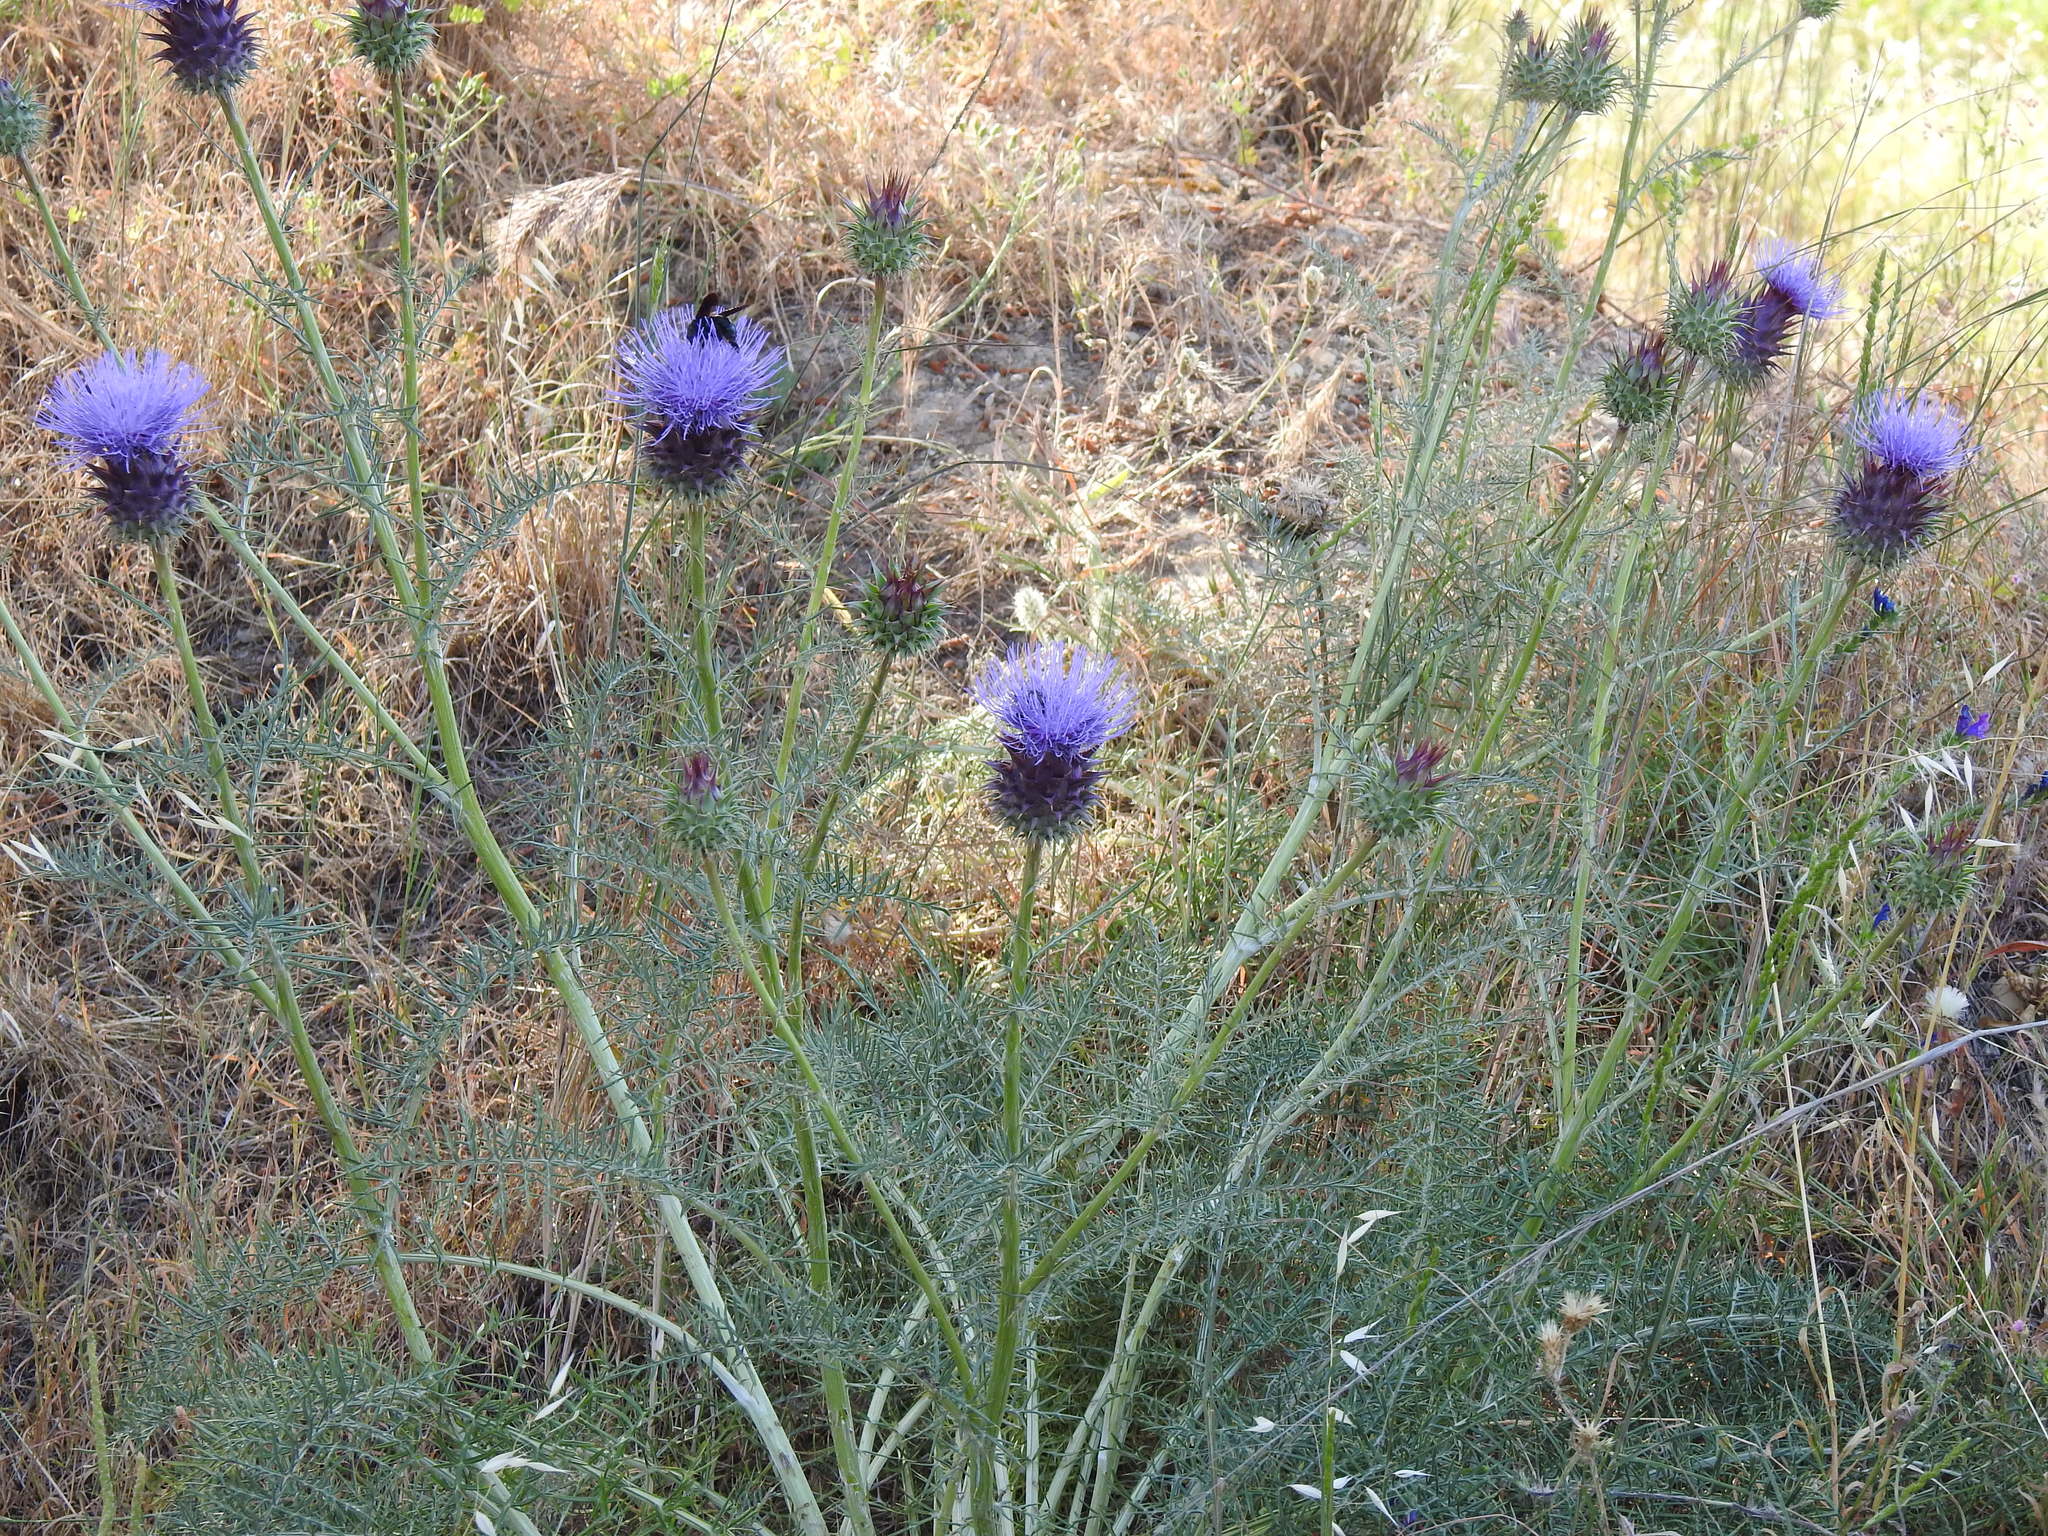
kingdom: Plantae
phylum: Tracheophyta
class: Magnoliopsida
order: Asterales
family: Asteraceae
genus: Cynara
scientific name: Cynara humilis
